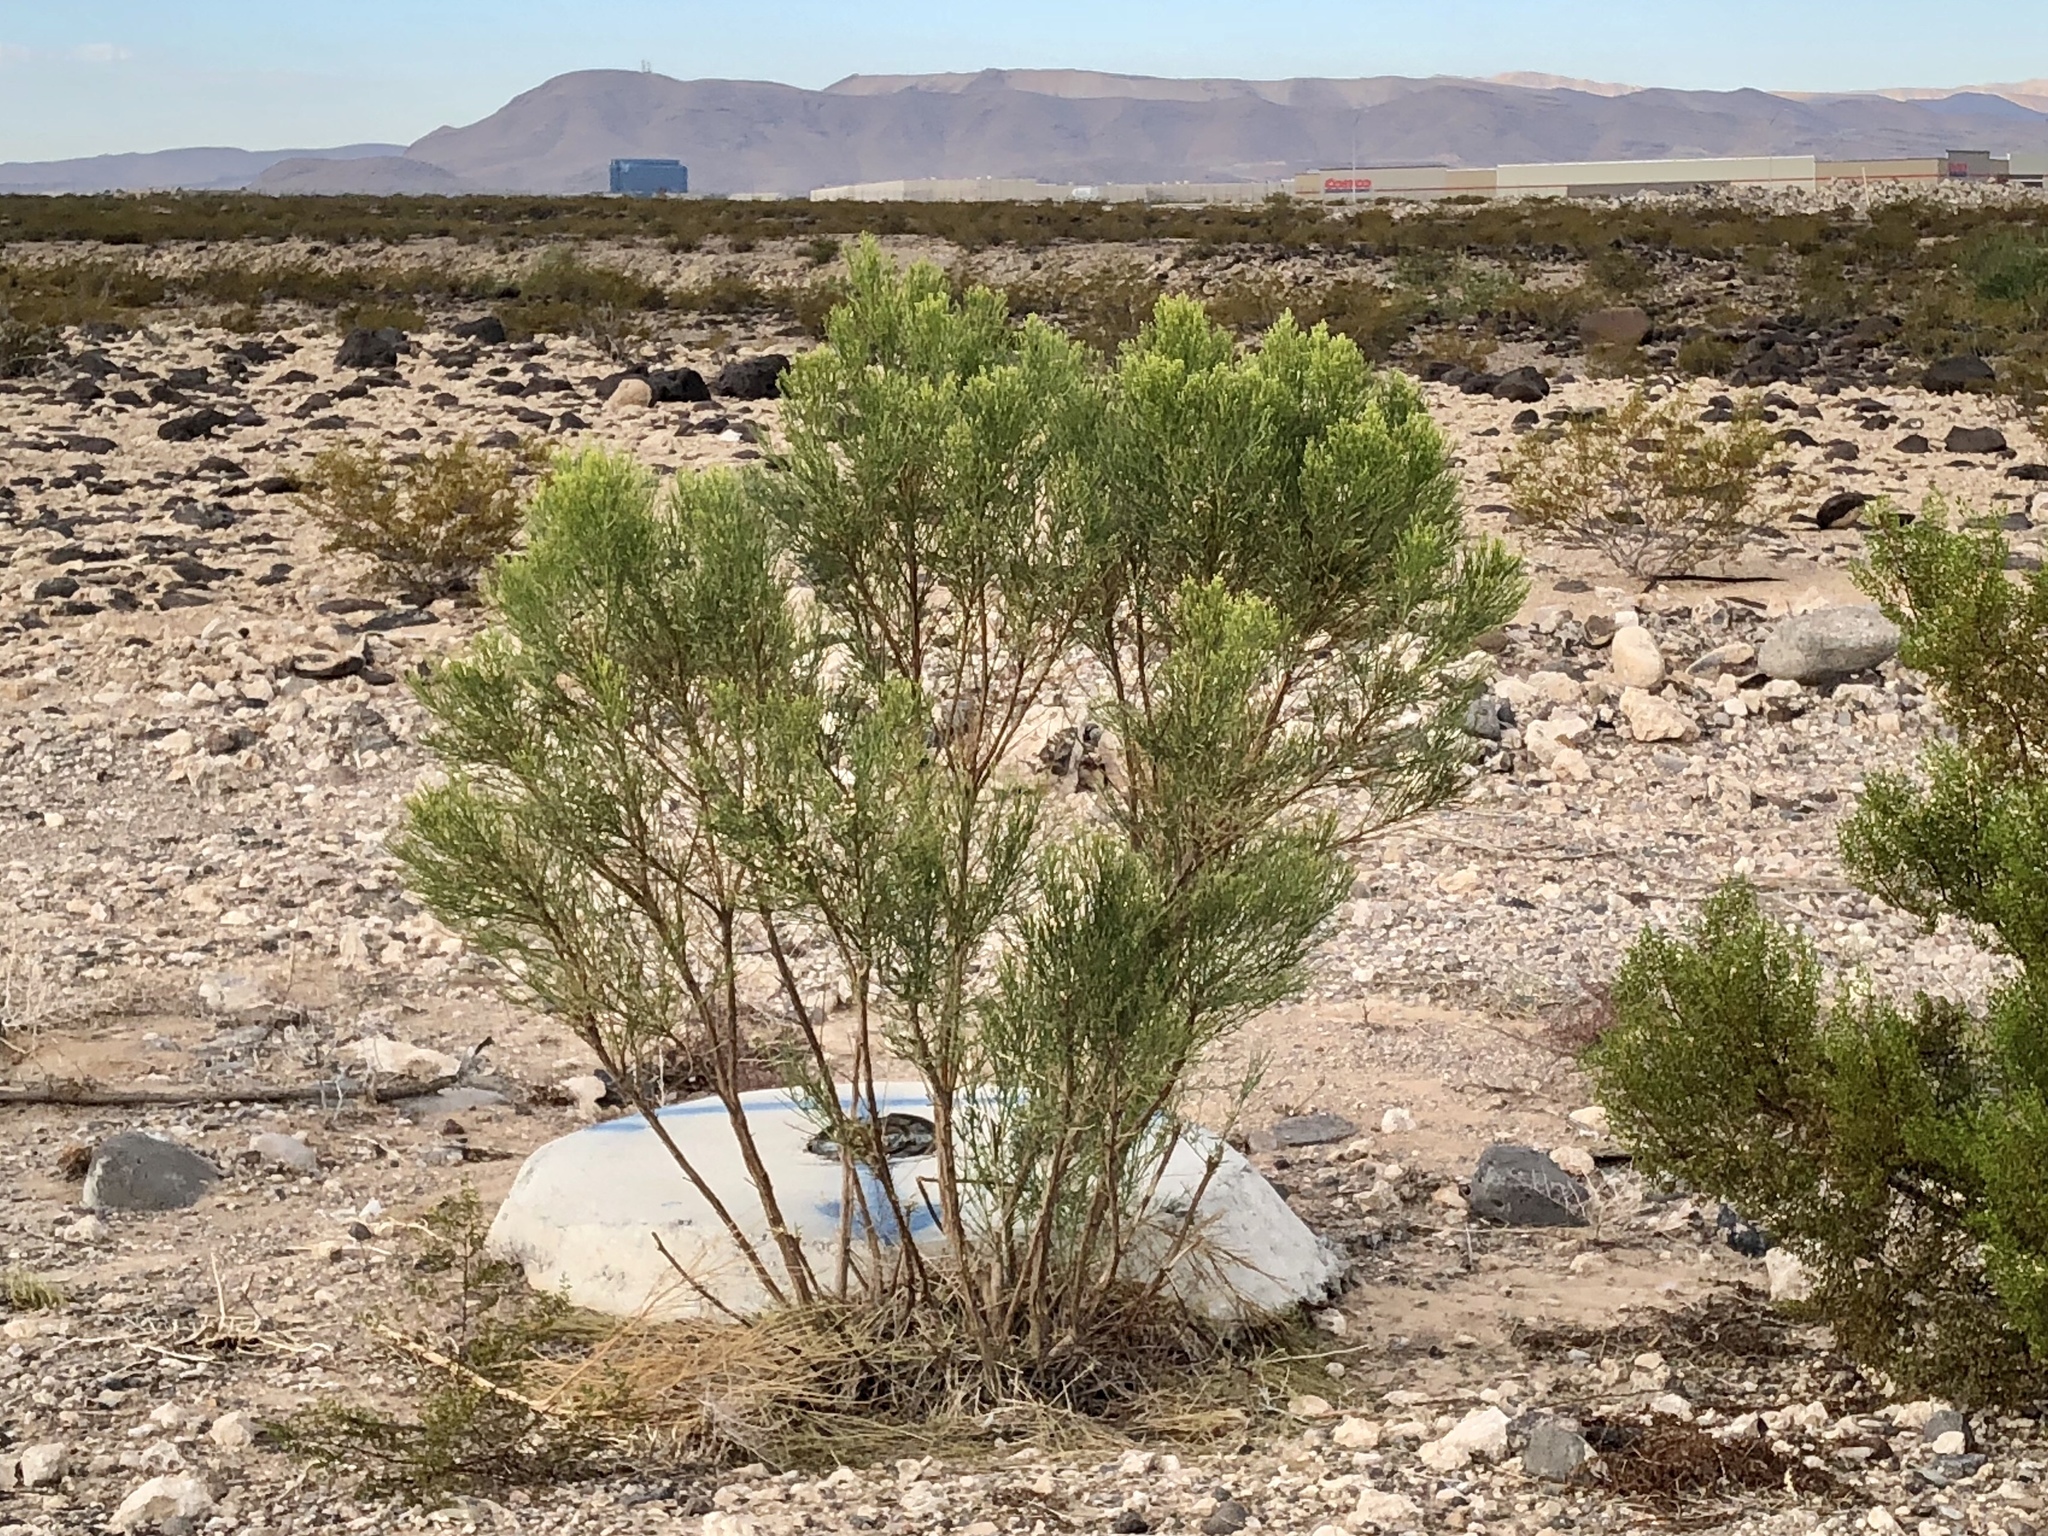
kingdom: Plantae
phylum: Tracheophyta
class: Magnoliopsida
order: Asterales
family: Asteraceae
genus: Baccharis
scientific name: Baccharis sarothroides
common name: Desert-broom
